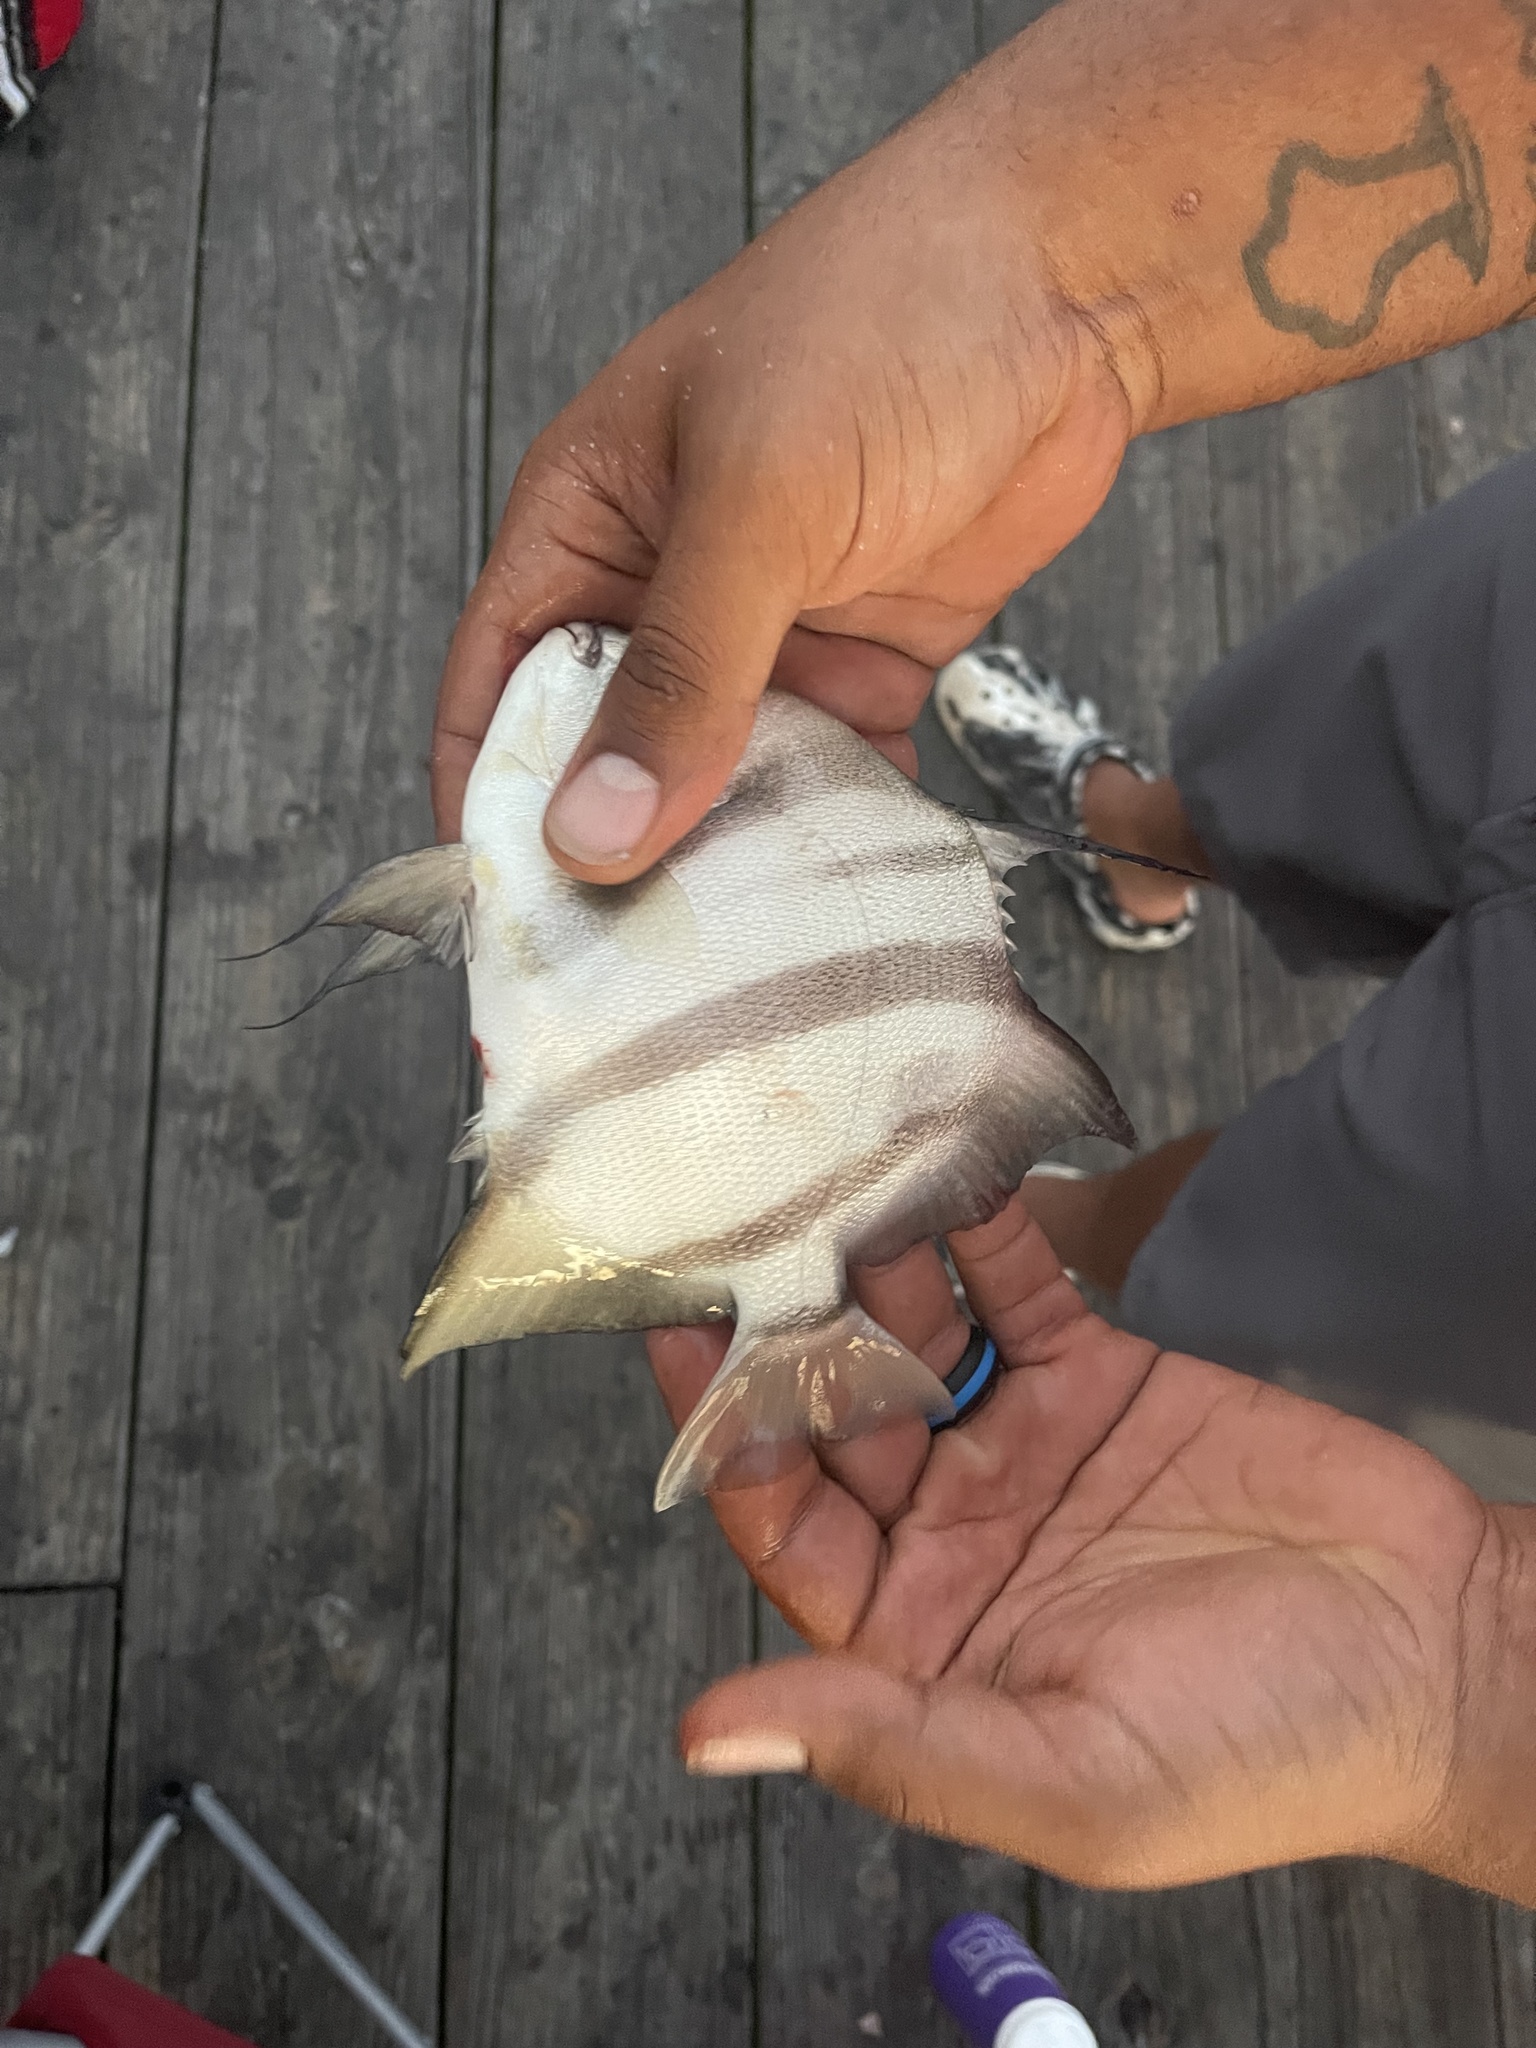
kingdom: Animalia
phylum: Chordata
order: Perciformes
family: Ephippidae
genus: Chaetodipterus
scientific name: Chaetodipterus faber
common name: Ocean cobbler
